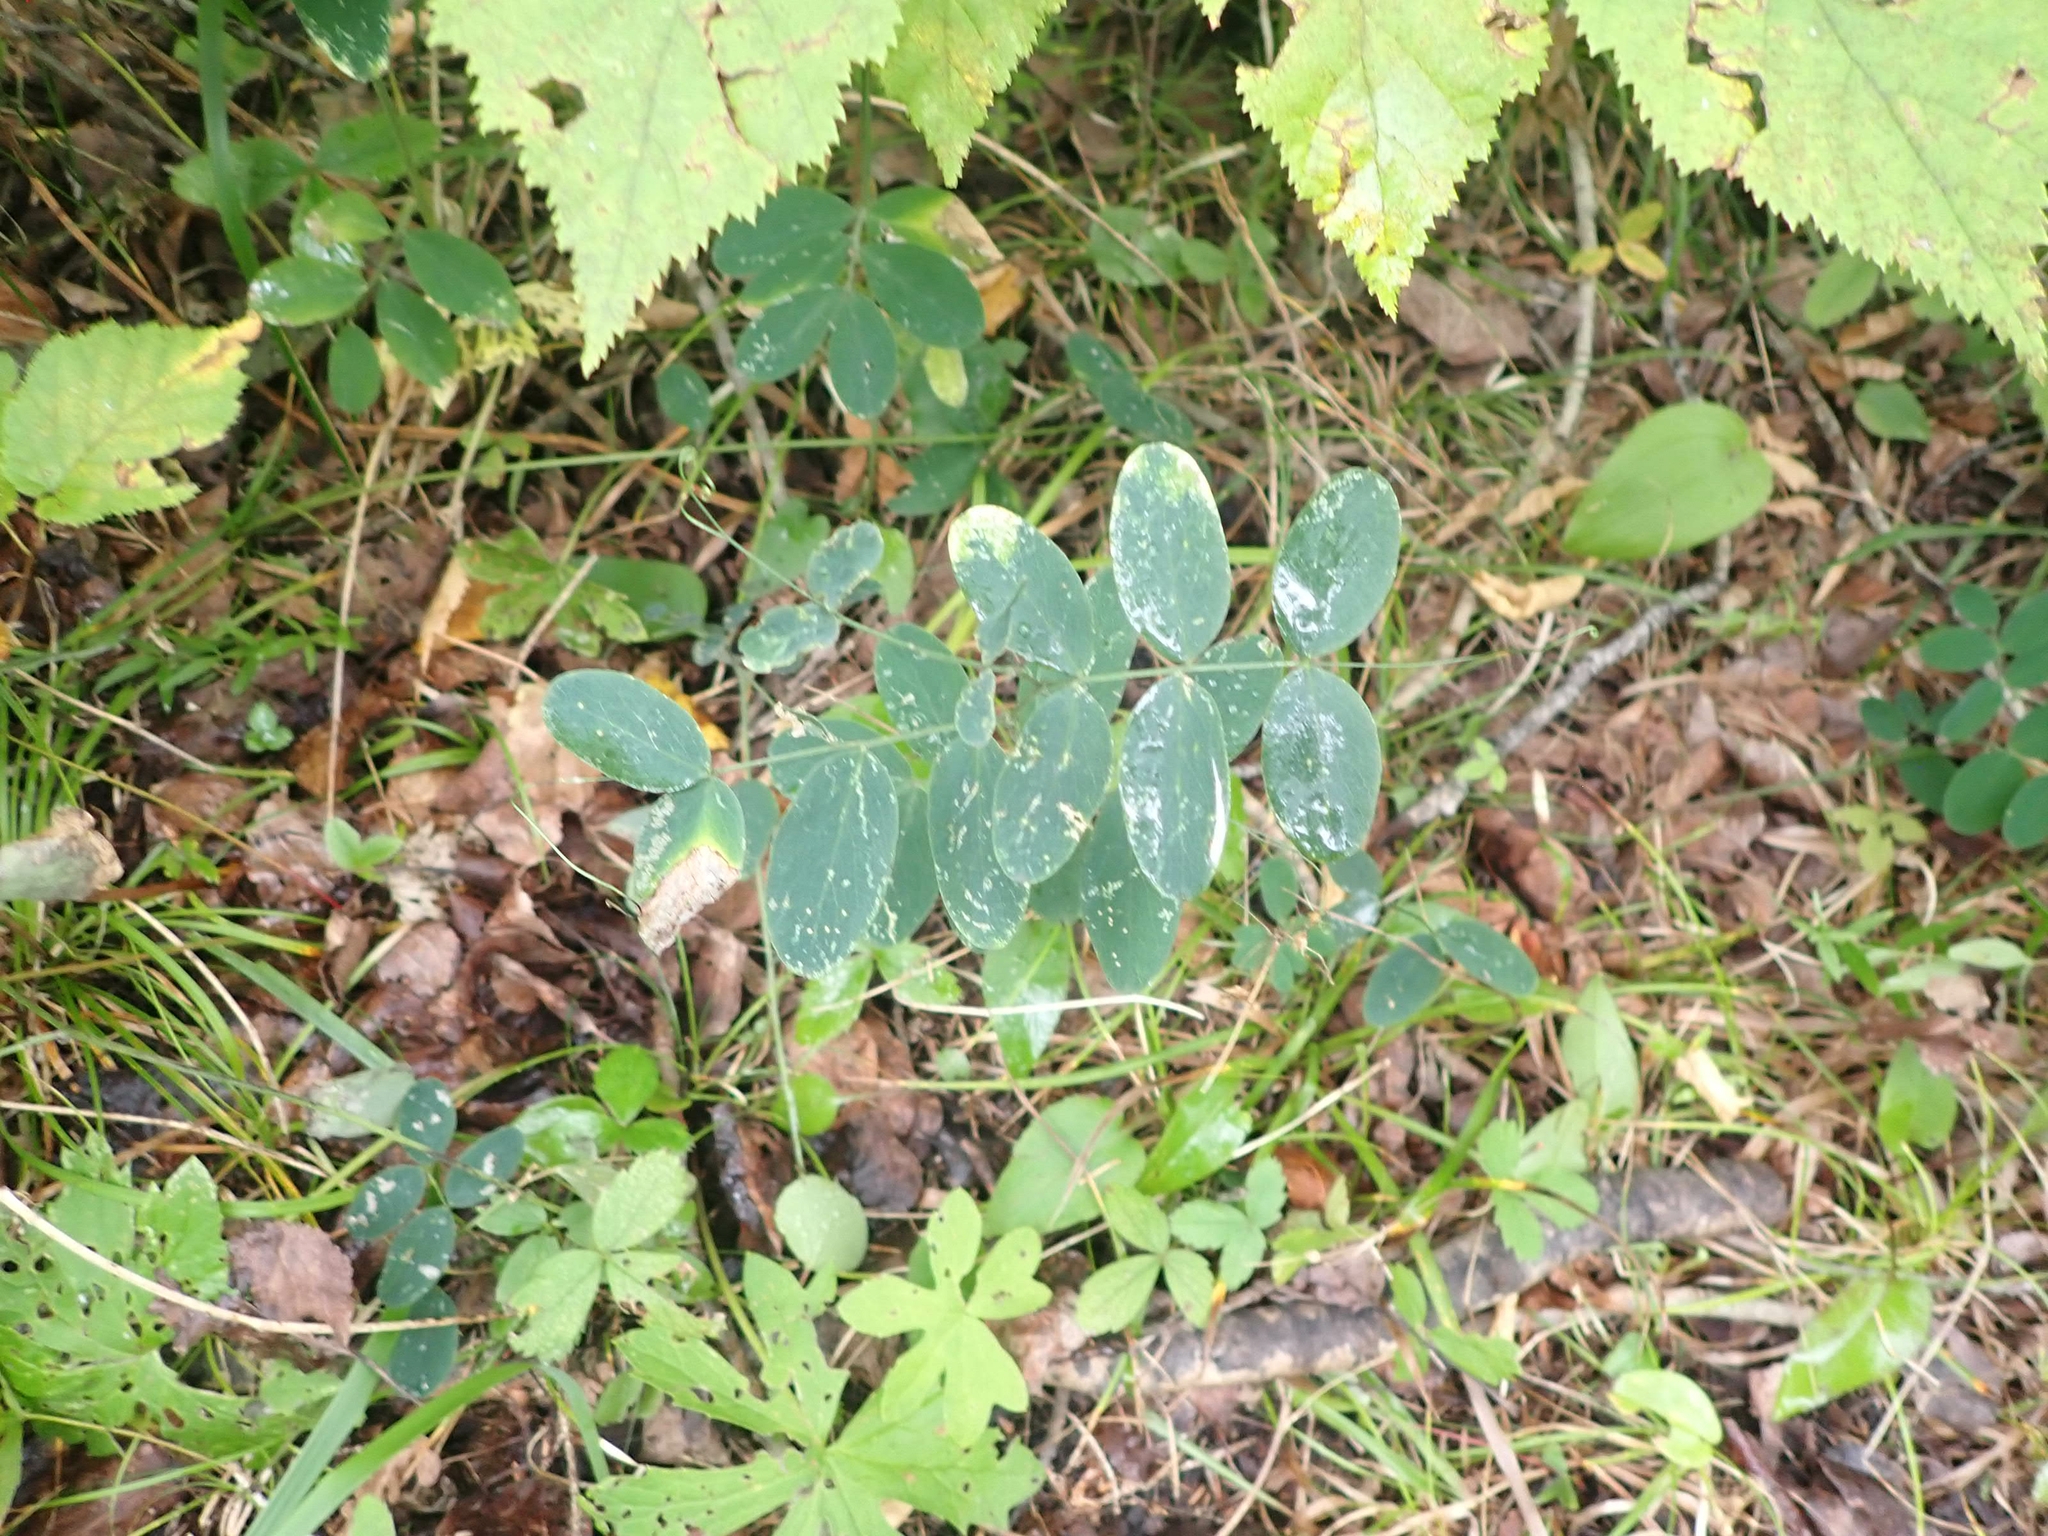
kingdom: Plantae
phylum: Tracheophyta
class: Magnoliopsida
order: Fabales
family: Fabaceae
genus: Lathyrus
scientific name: Lathyrus venosus
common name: Forest-pea
